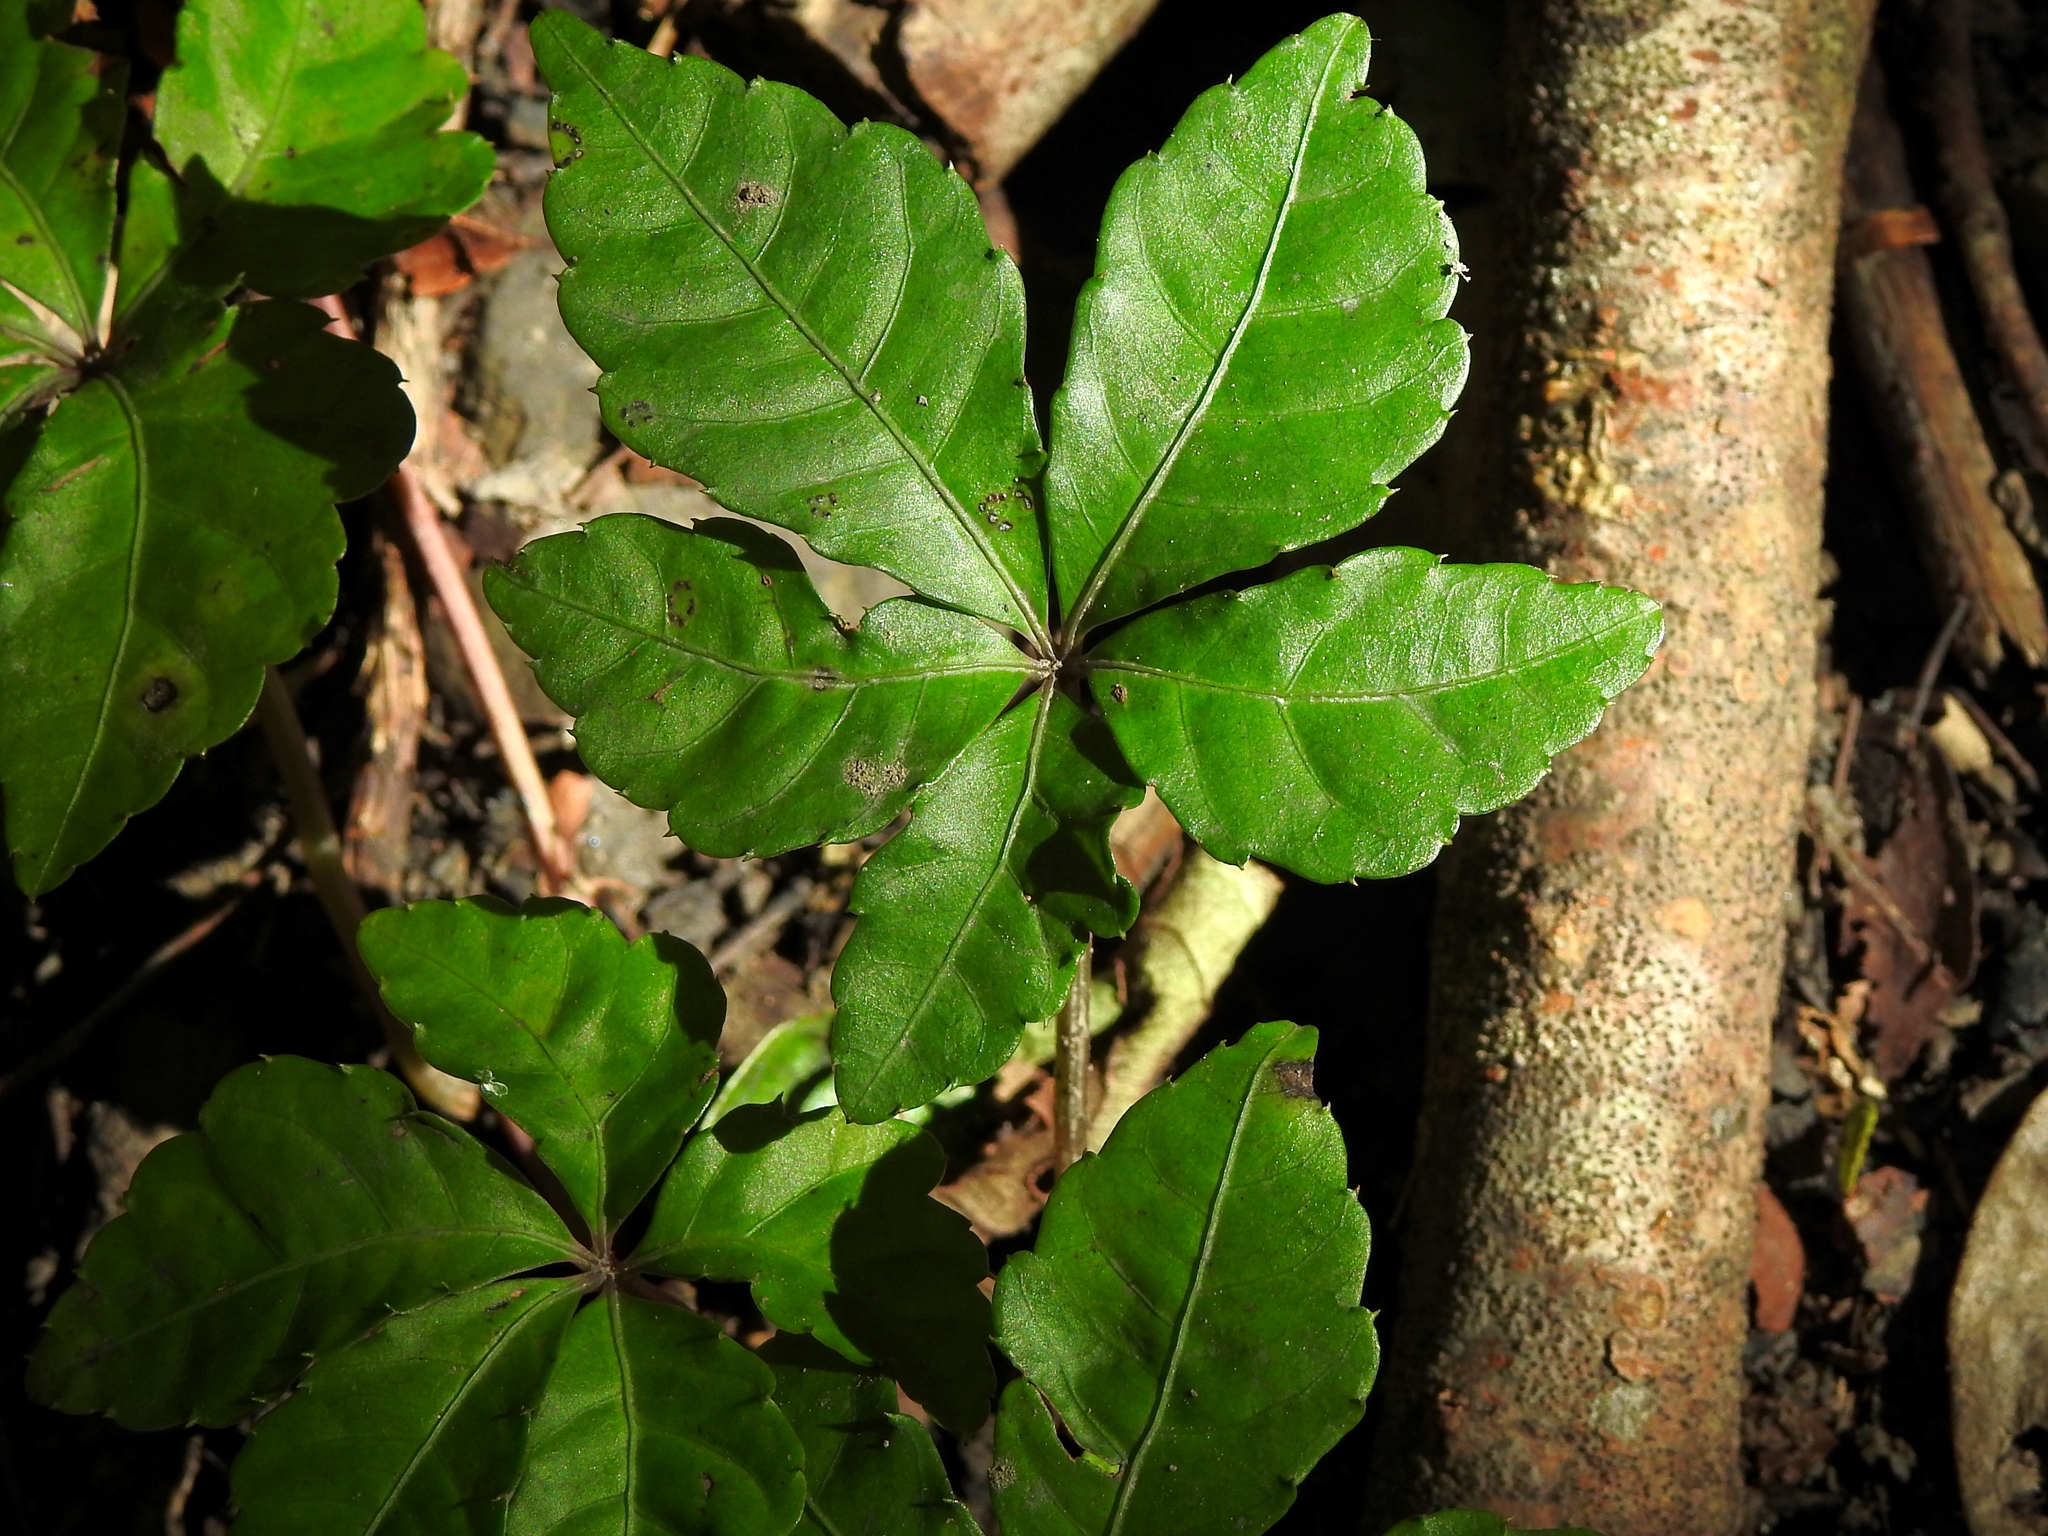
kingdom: Plantae
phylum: Tracheophyta
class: Magnoliopsida
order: Vitales
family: Vitaceae
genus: Tetrastigma
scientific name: Tetrastigma obtectum
